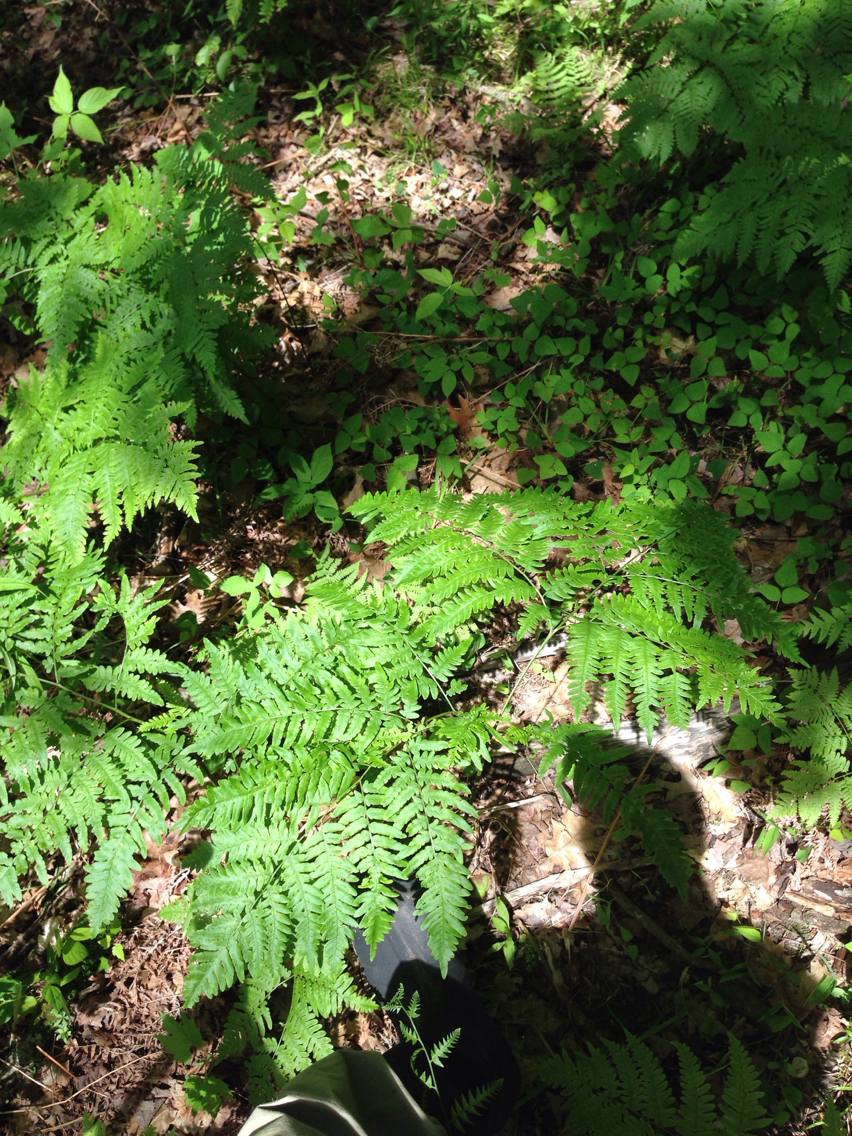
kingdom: Plantae
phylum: Tracheophyta
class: Polypodiopsida
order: Polypodiales
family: Dennstaedtiaceae
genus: Pteridium
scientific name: Pteridium aquilinum
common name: Bracken
